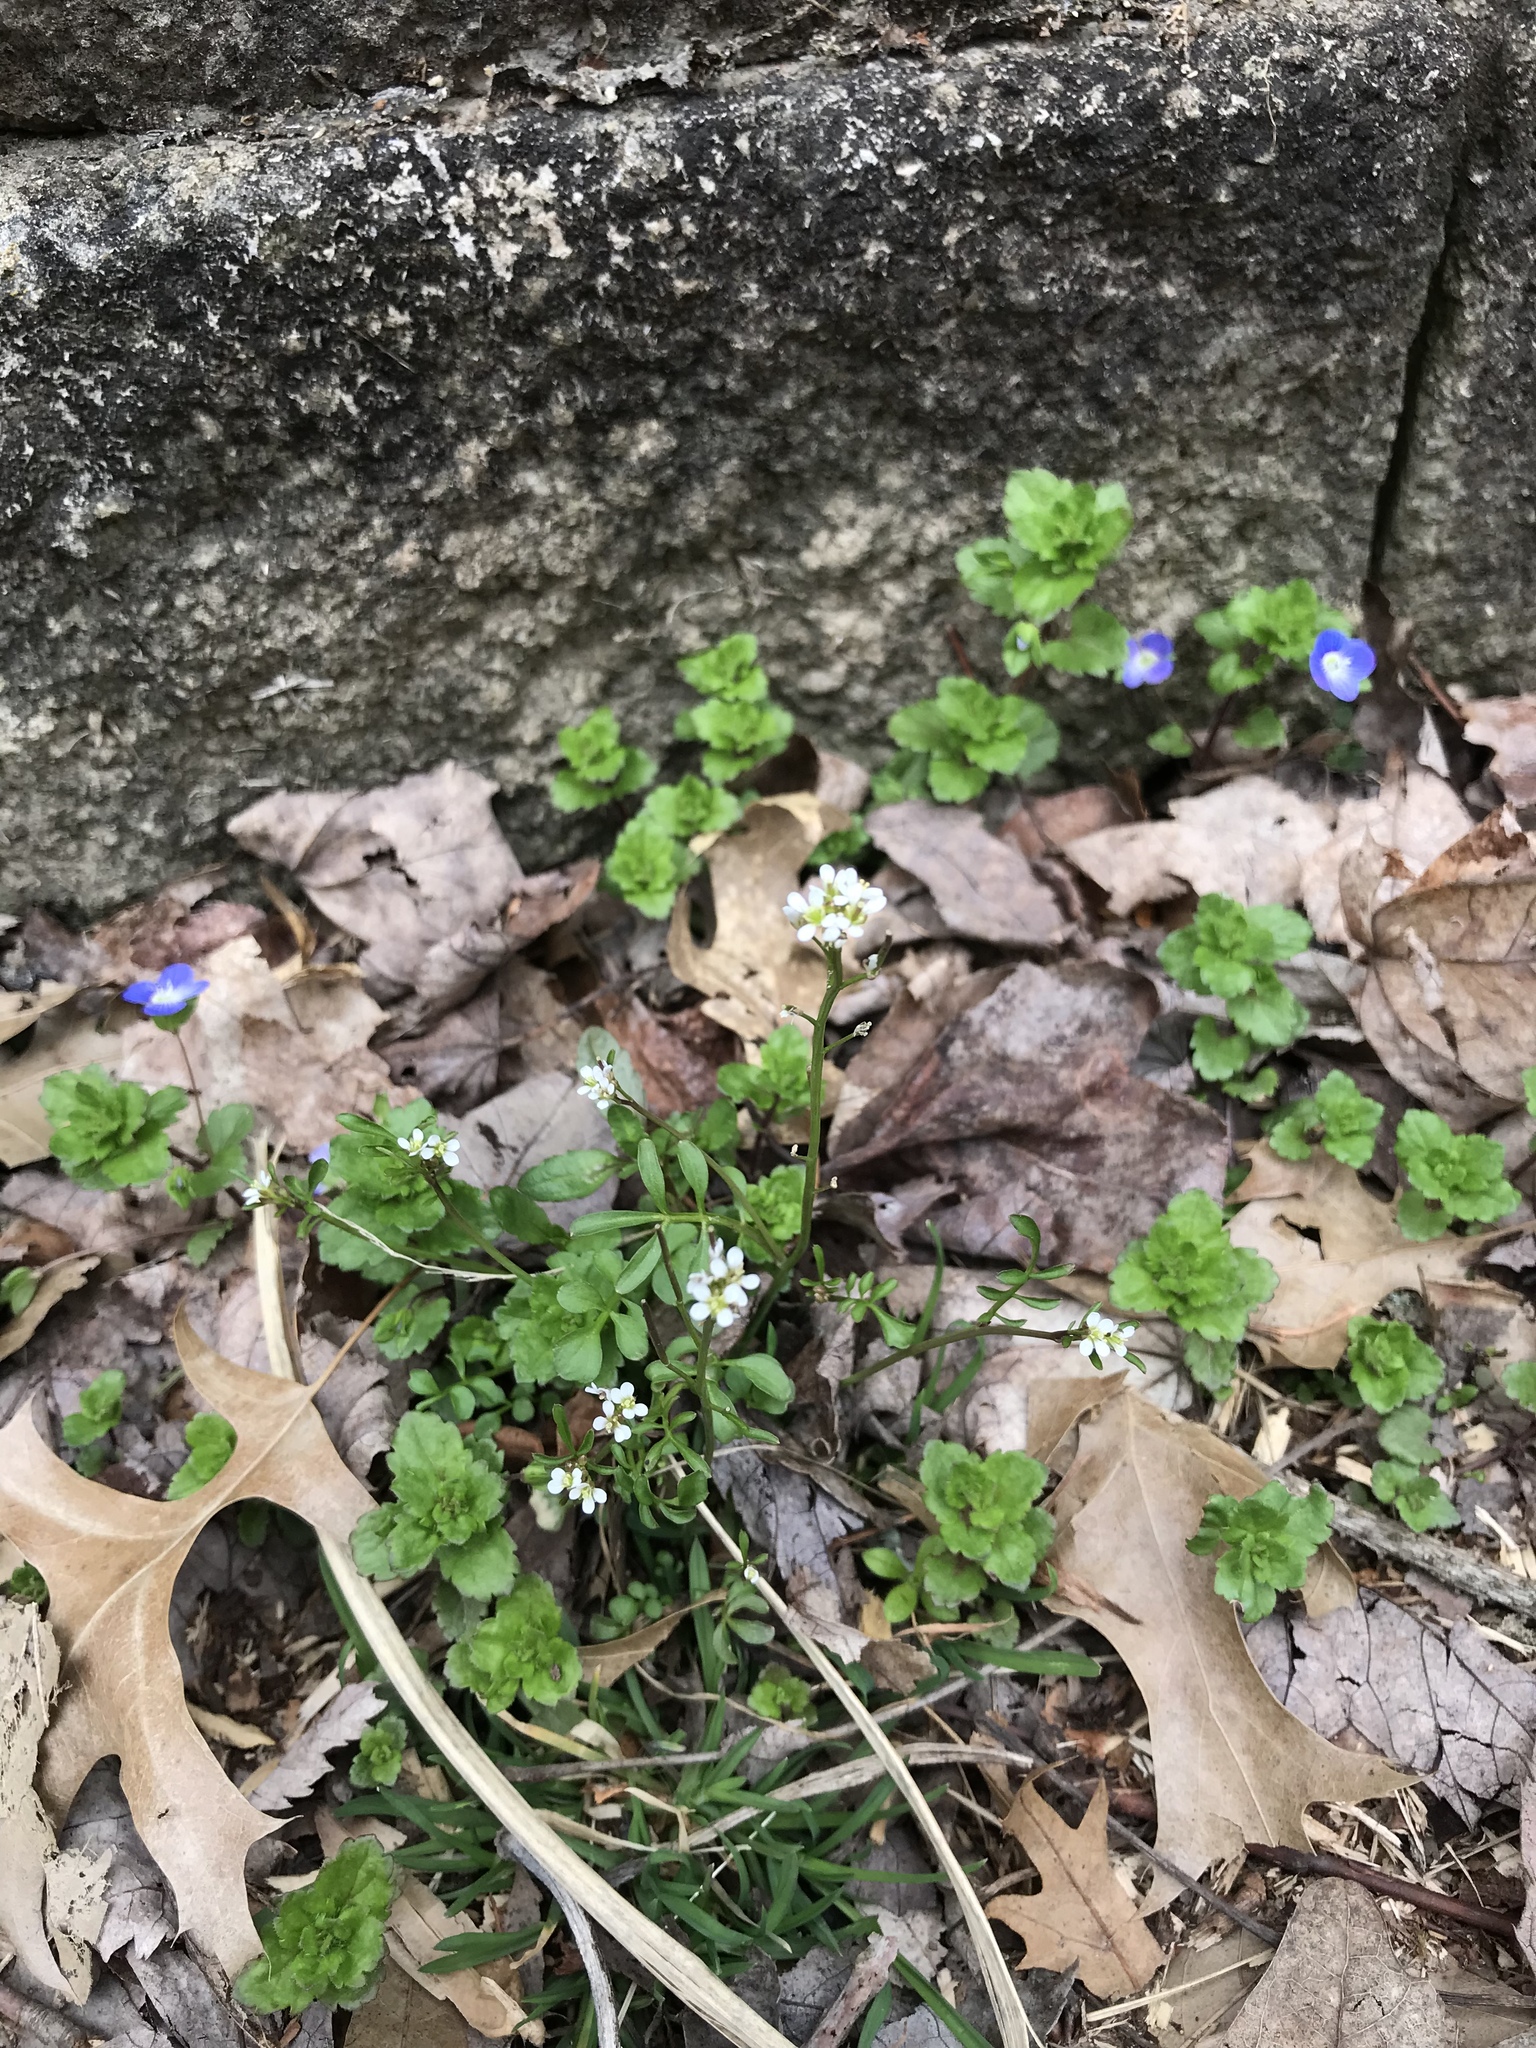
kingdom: Plantae
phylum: Tracheophyta
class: Magnoliopsida
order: Lamiales
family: Plantaginaceae
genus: Veronica
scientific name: Veronica persica
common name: Common field-speedwell
